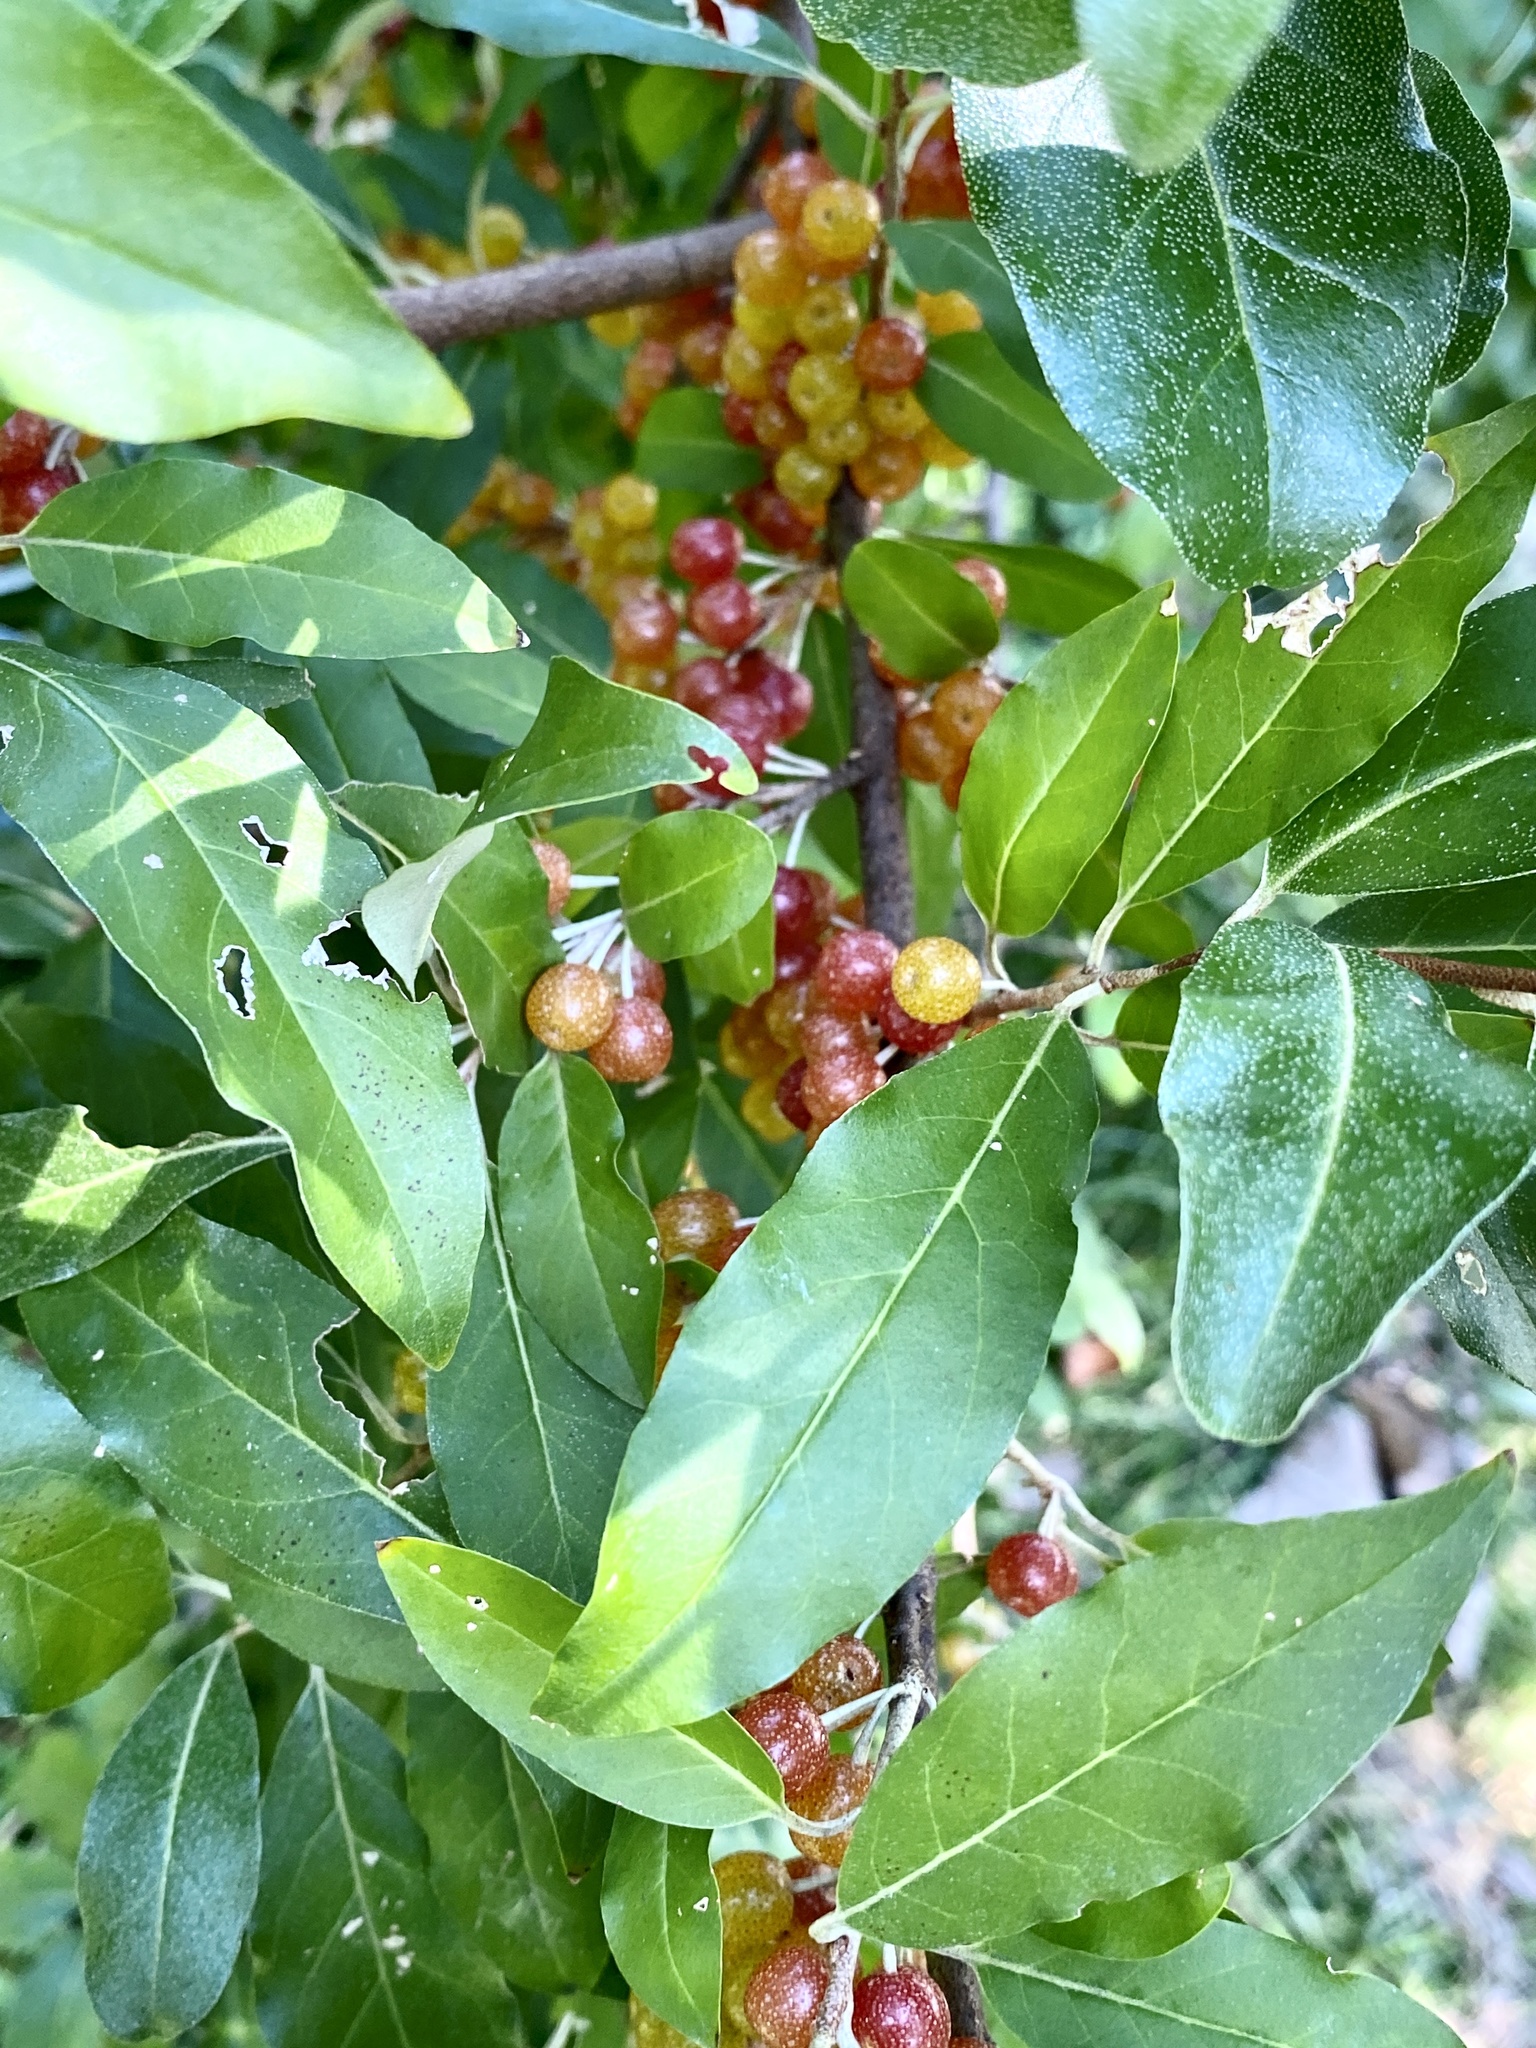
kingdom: Plantae
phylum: Tracheophyta
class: Magnoliopsida
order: Rosales
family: Elaeagnaceae
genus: Elaeagnus
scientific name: Elaeagnus umbellata
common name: Autumn olive
